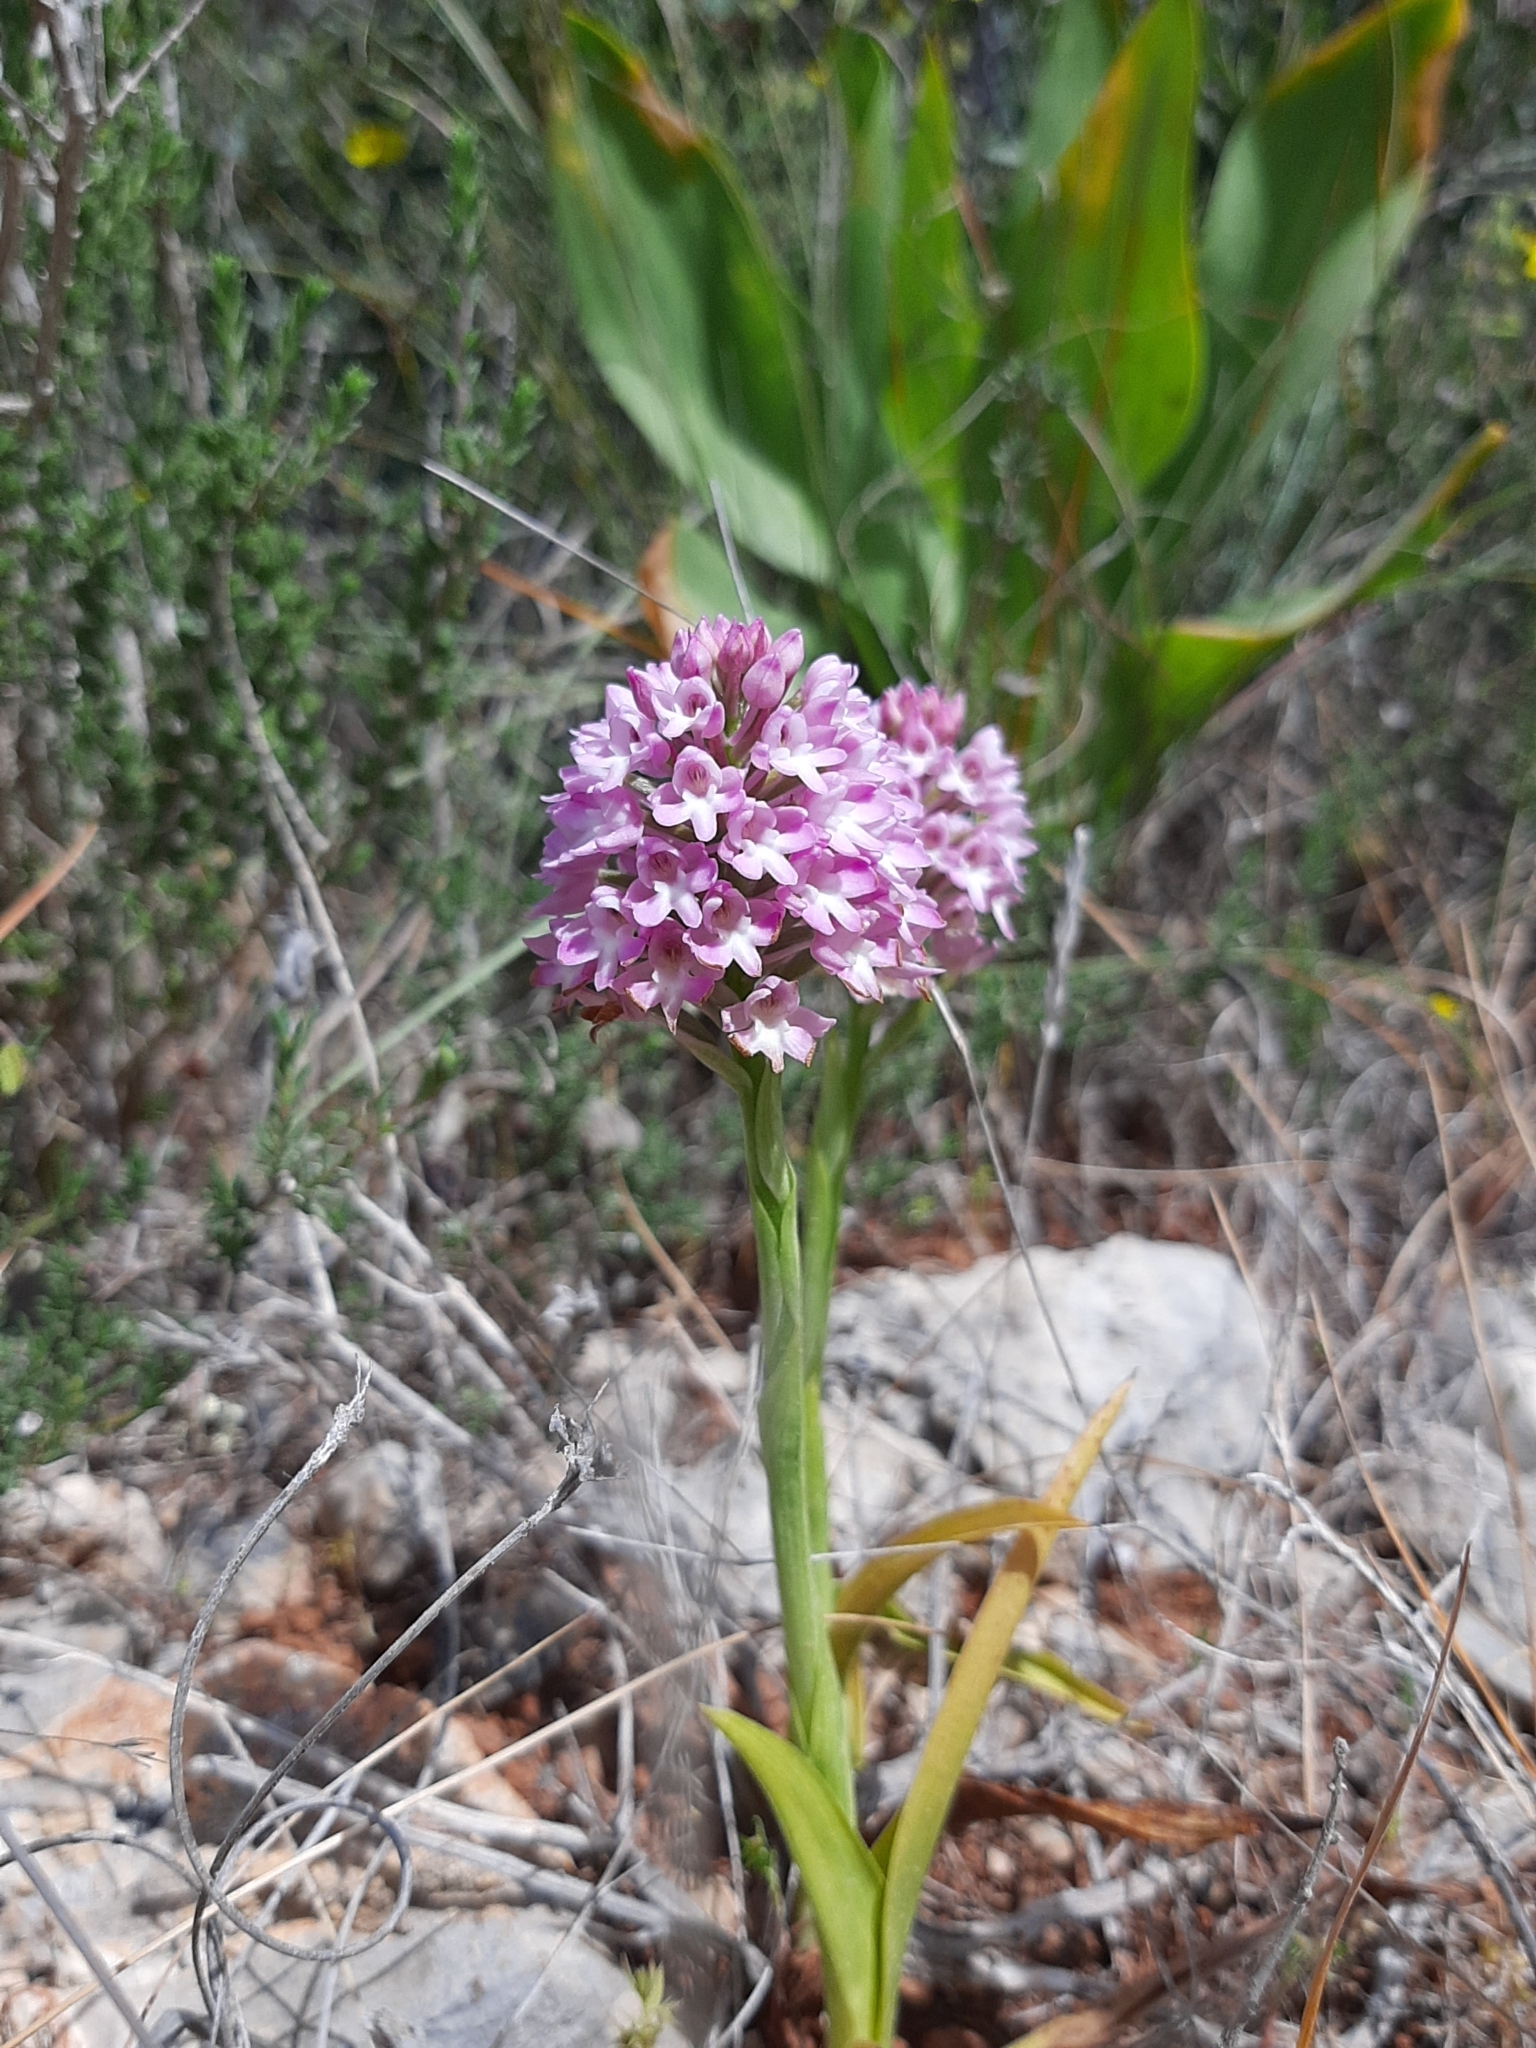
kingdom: Plantae
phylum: Tracheophyta
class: Liliopsida
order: Asparagales
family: Orchidaceae
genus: Anacamptis
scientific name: Anacamptis pyramidalis
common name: Pyramidal orchid
